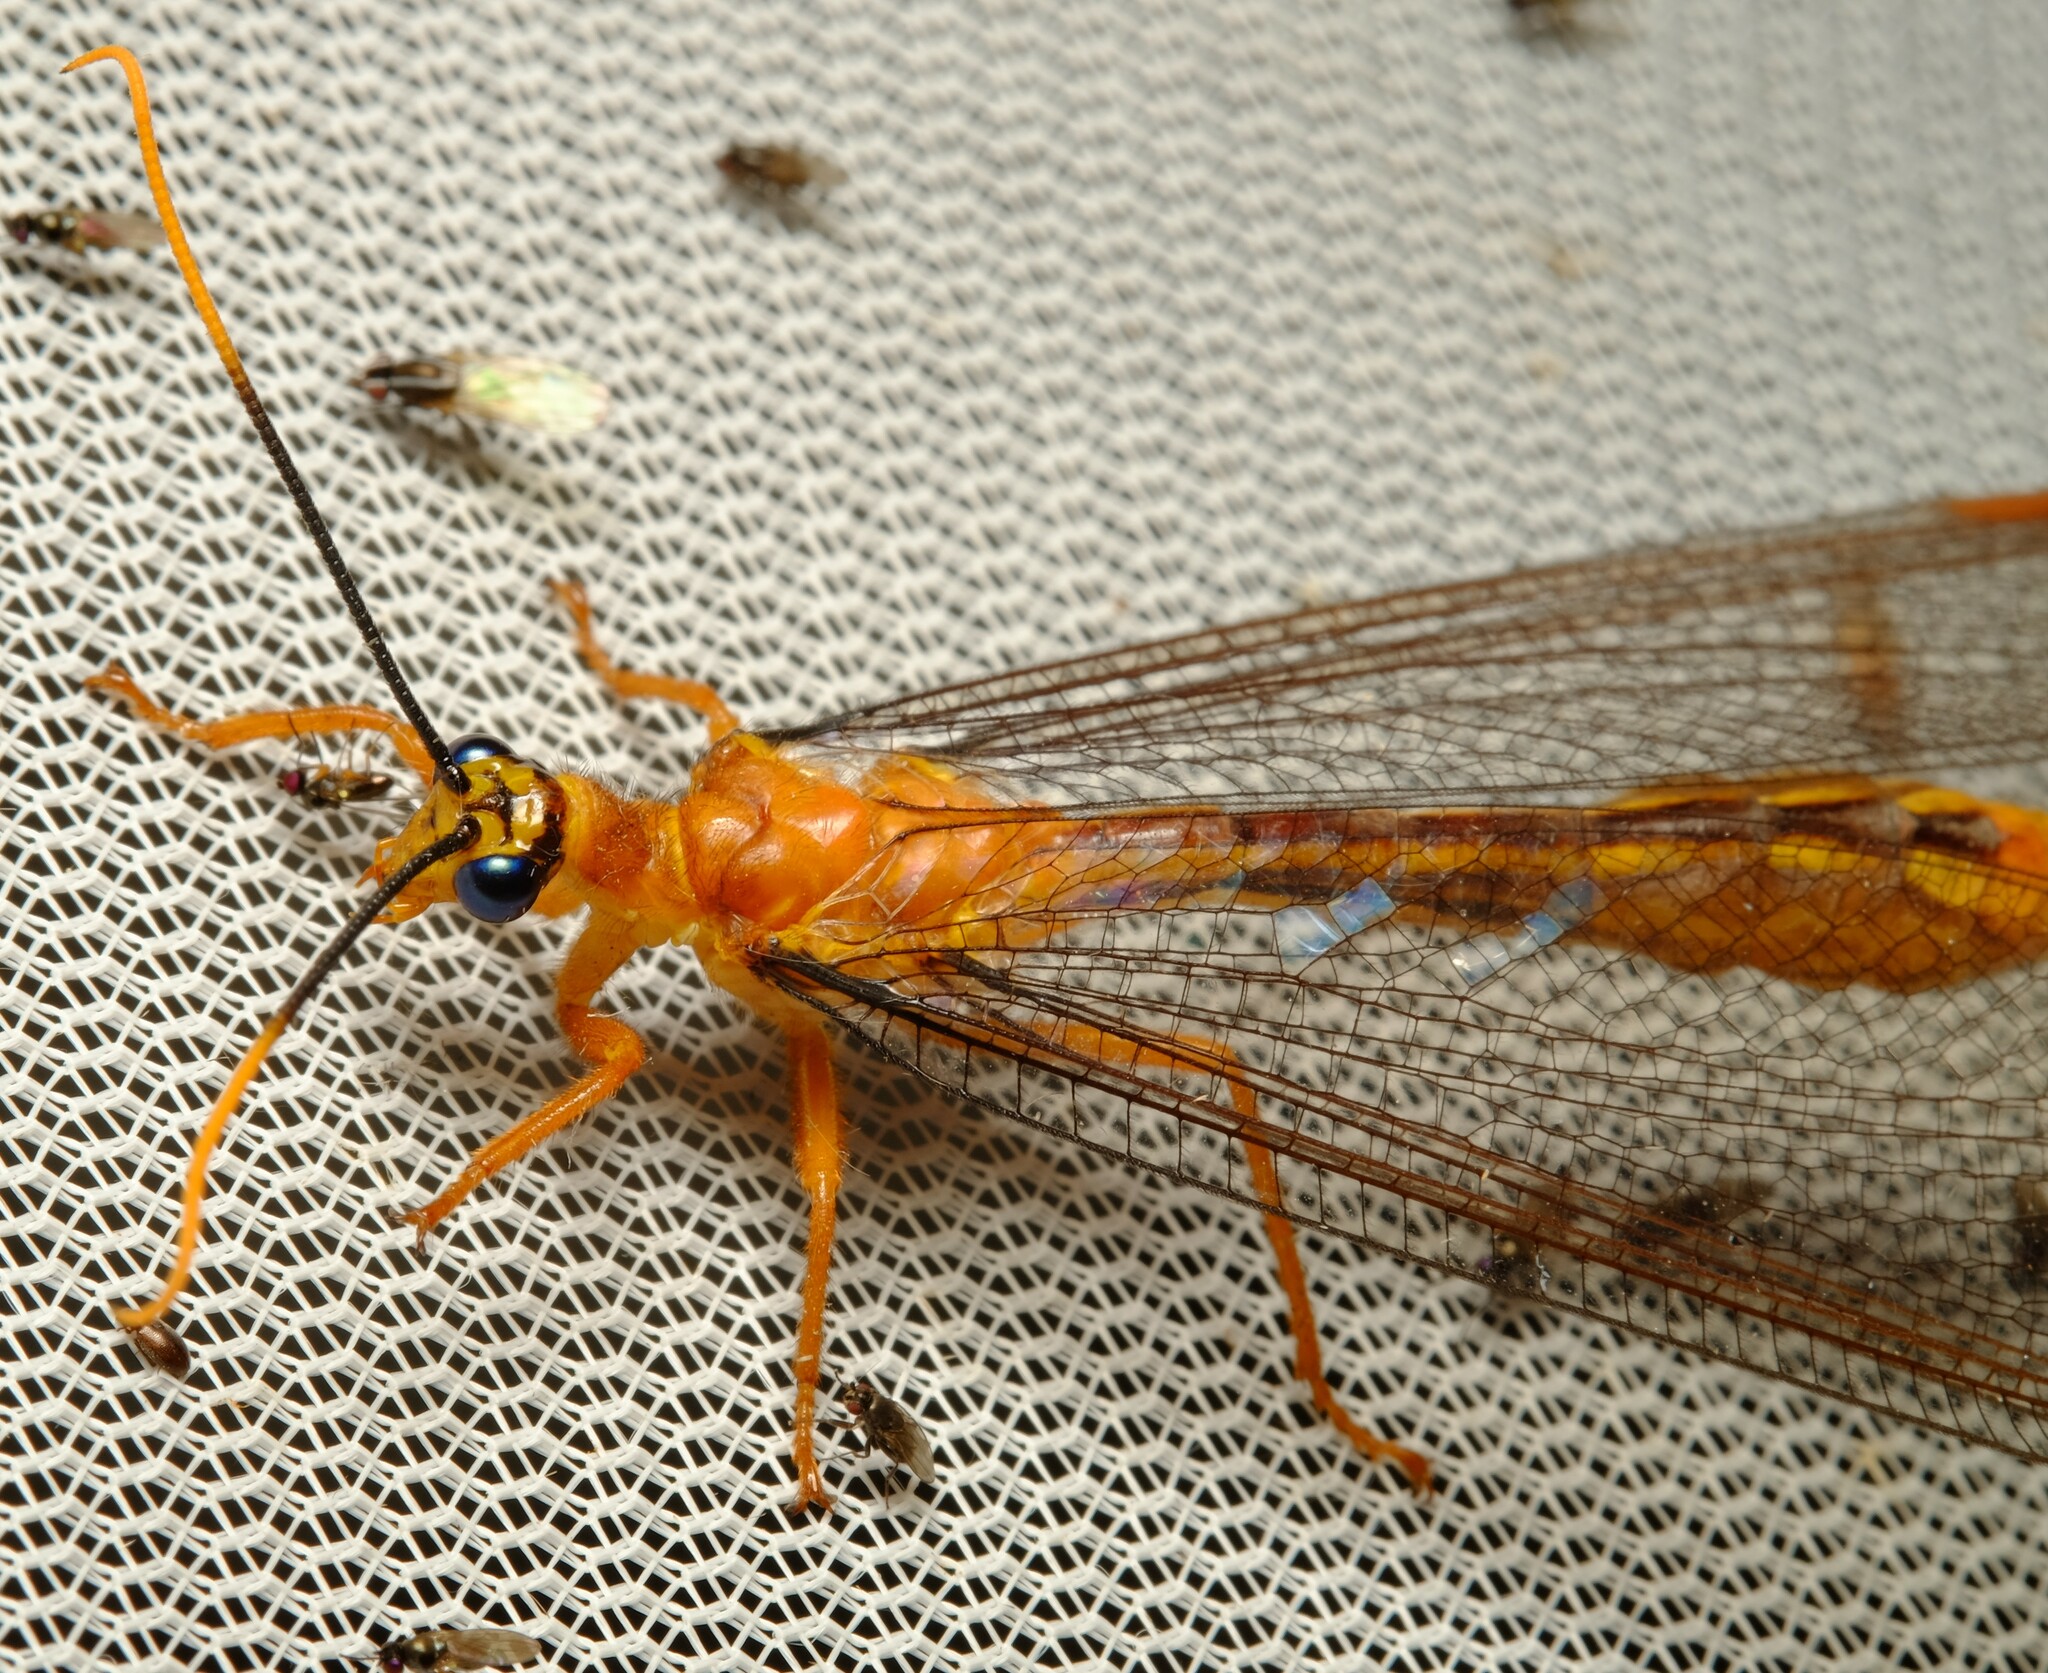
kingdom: Animalia
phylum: Arthropoda
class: Insecta
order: Neuroptera
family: Nymphidae
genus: Nymphes
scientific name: Nymphes myrmeleonoides
